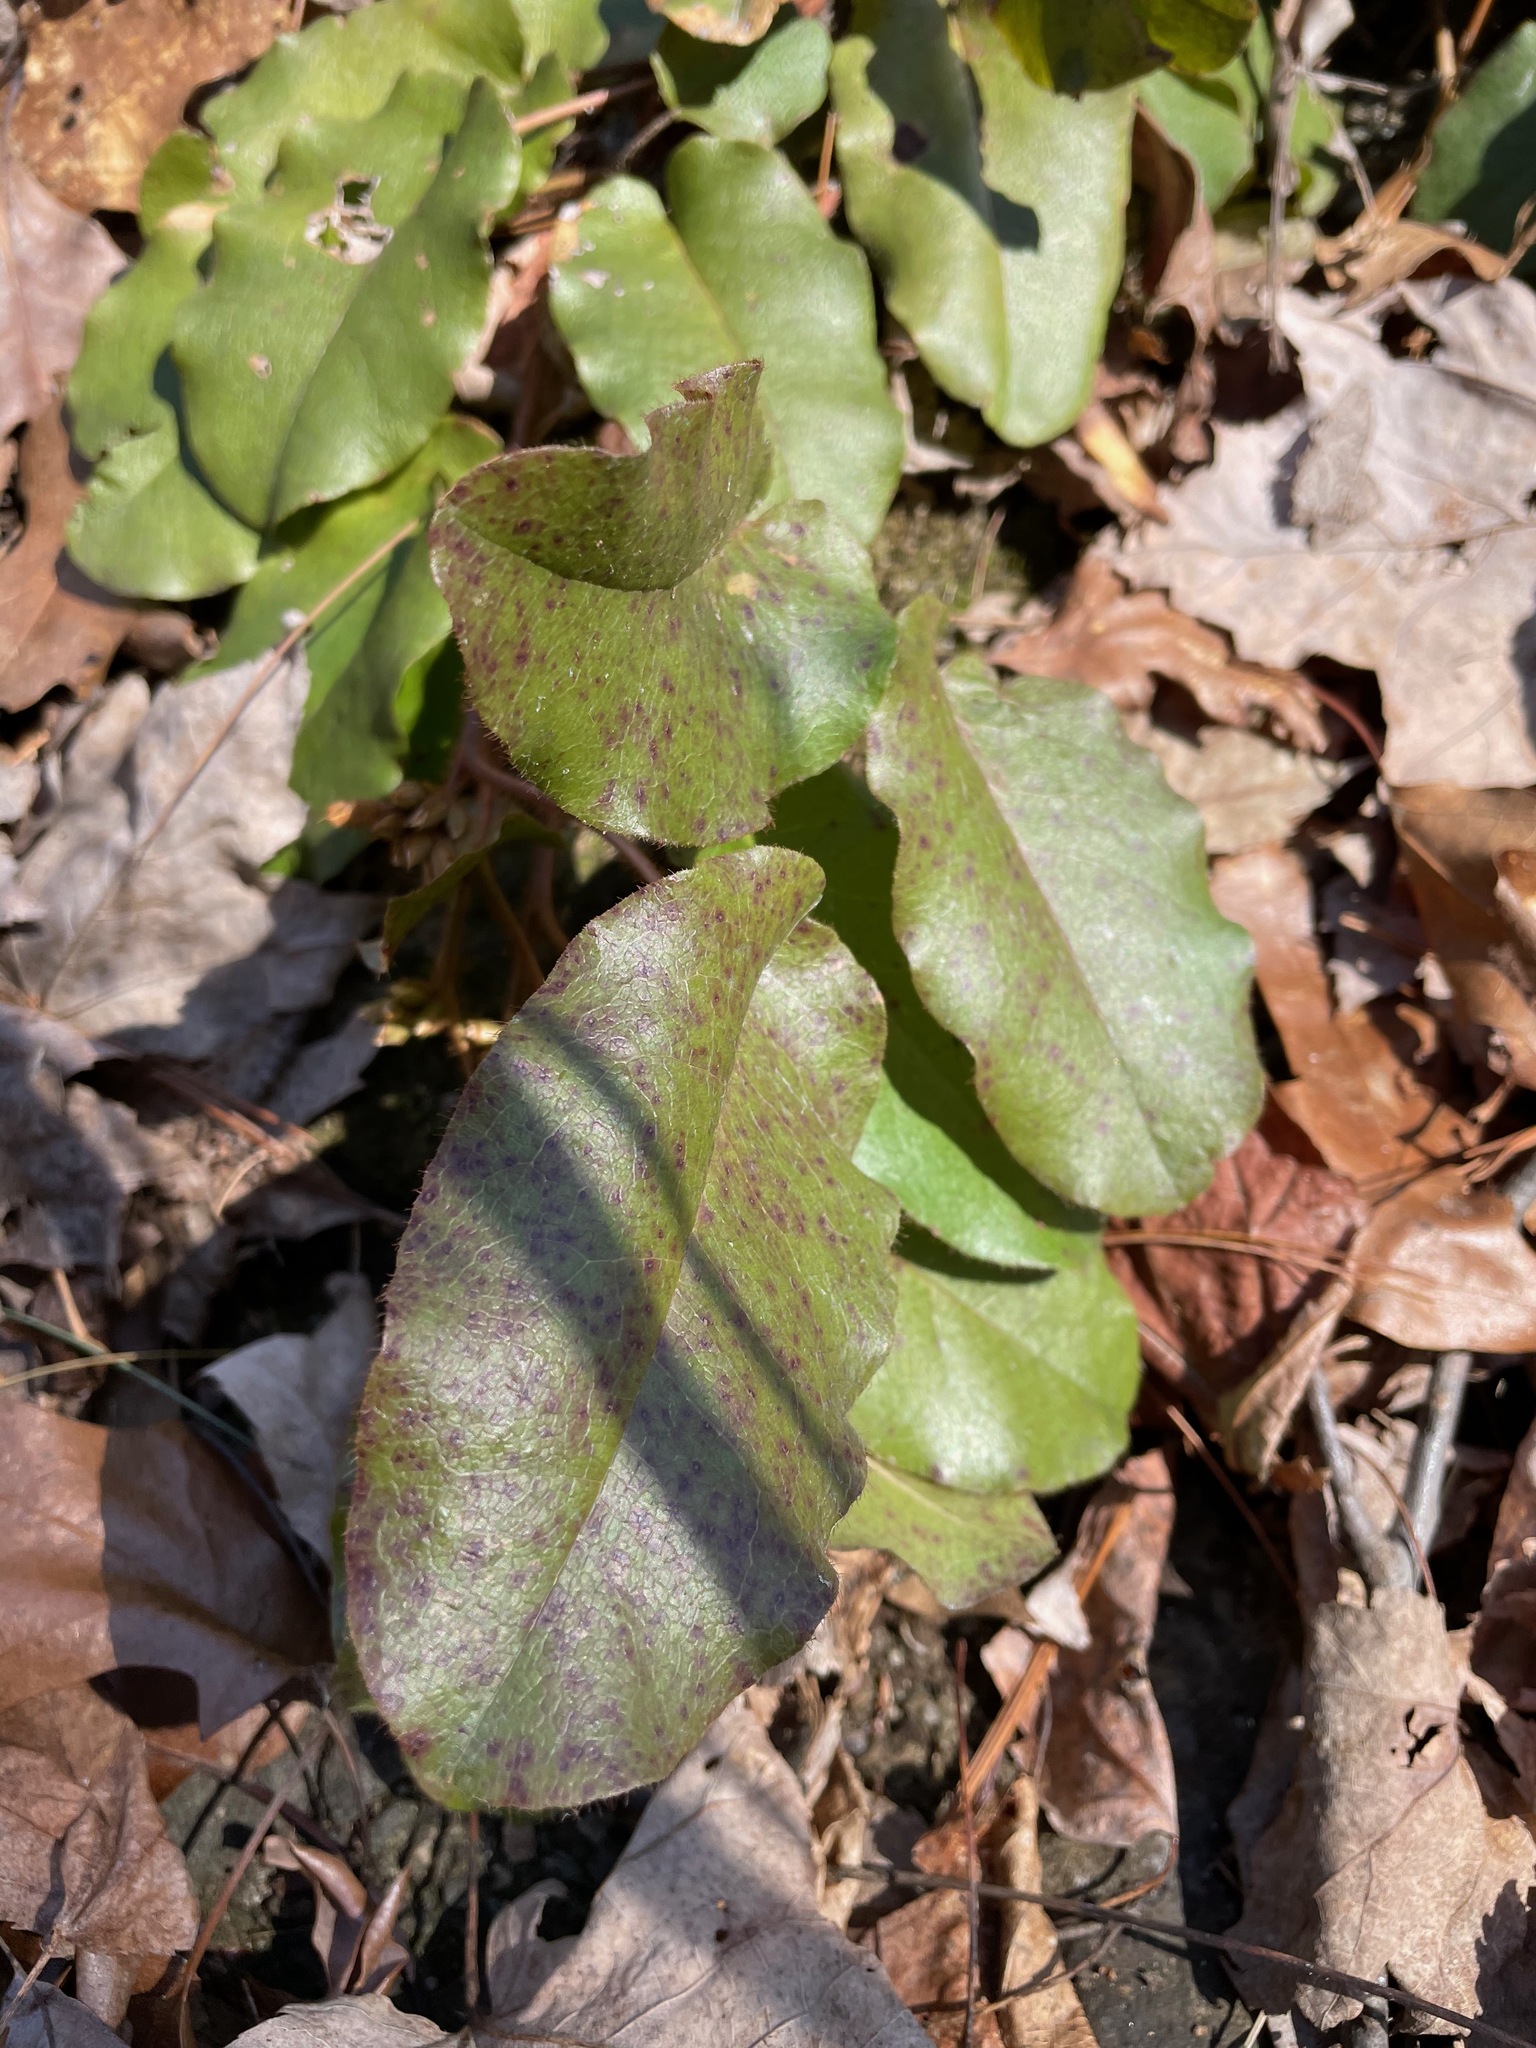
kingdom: Plantae
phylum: Tracheophyta
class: Magnoliopsida
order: Ericales
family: Ericaceae
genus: Epigaea
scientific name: Epigaea repens
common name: Gravelroot
